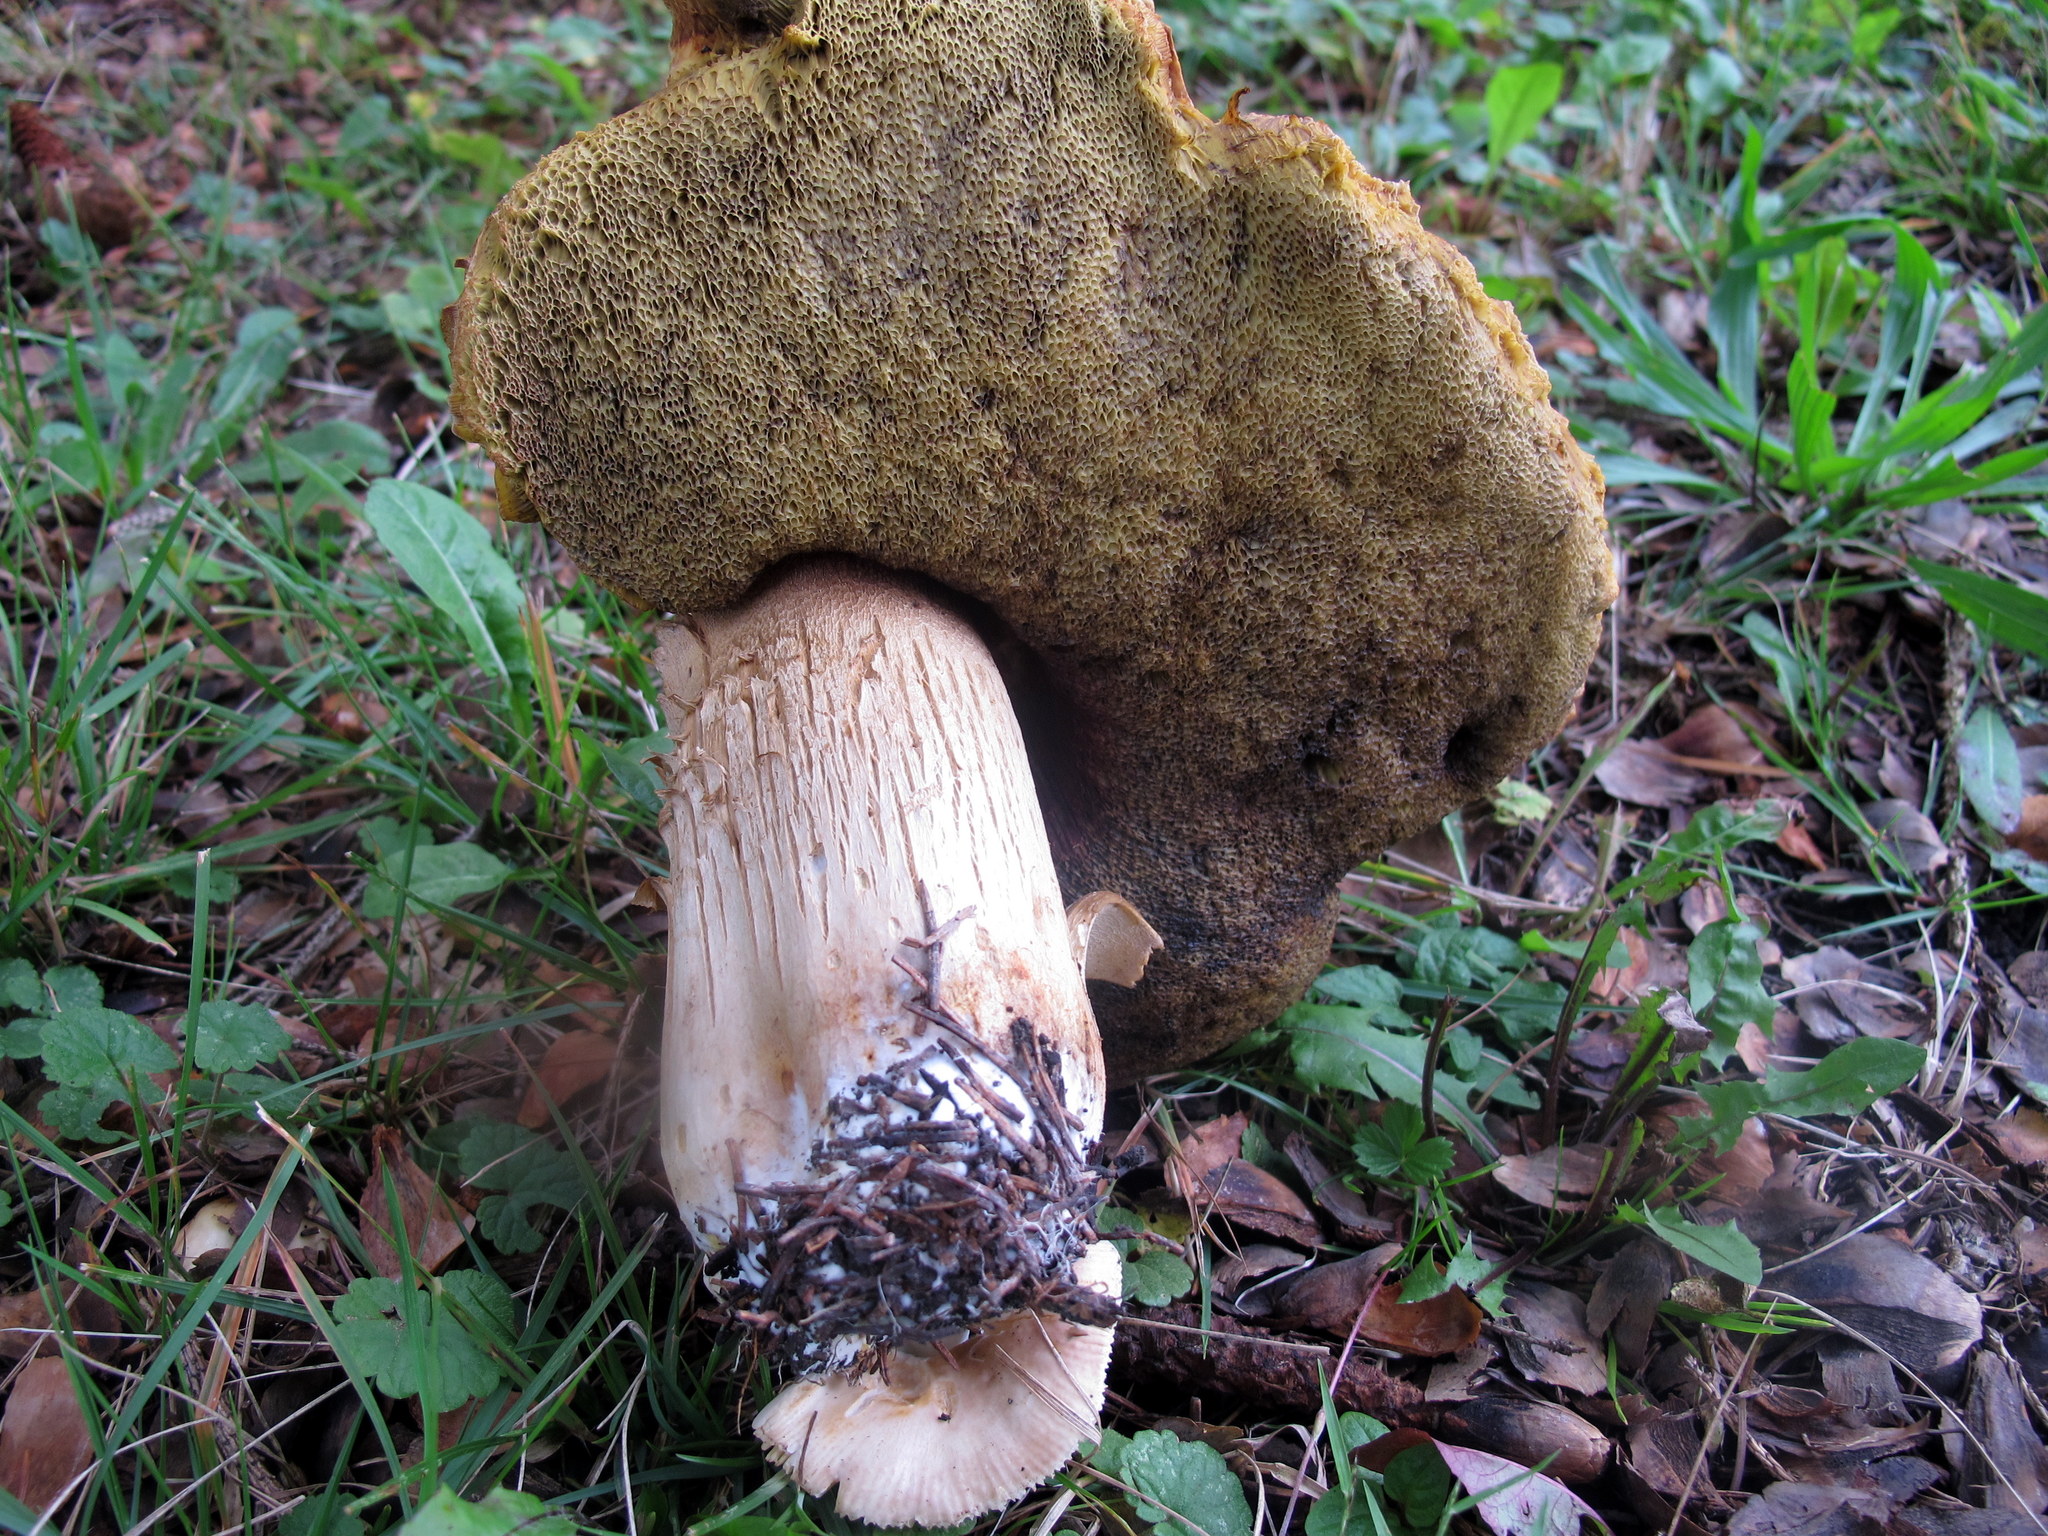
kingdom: Fungi
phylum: Basidiomycota
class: Agaricomycetes
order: Boletales
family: Boletaceae
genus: Boletus
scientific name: Boletus subcaerulescens
